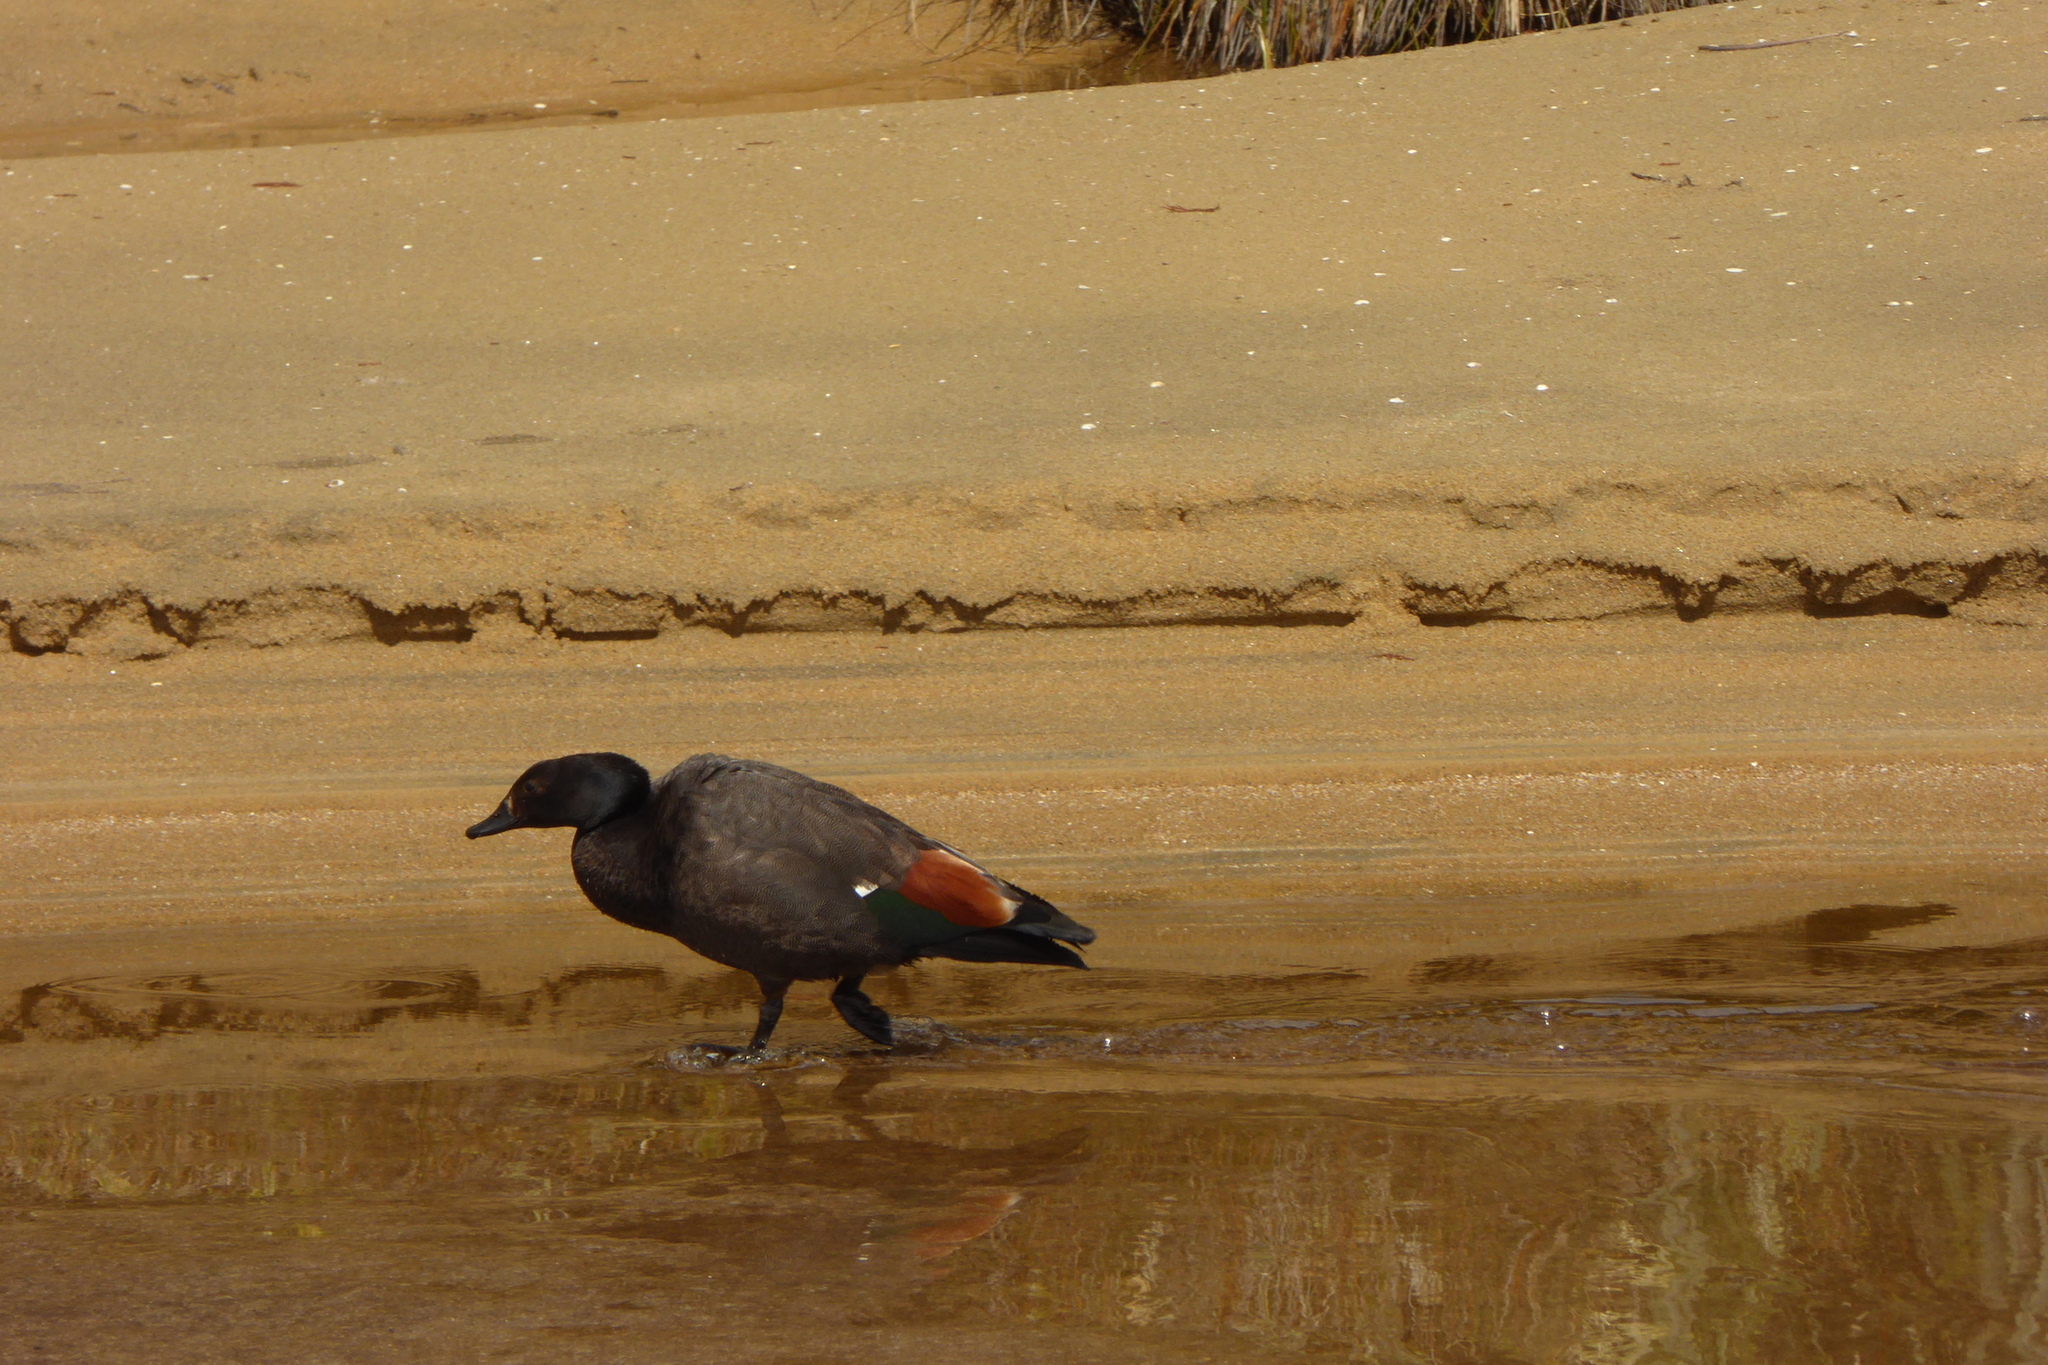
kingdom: Animalia
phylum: Chordata
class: Aves
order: Anseriformes
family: Anatidae
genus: Tadorna
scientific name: Tadorna variegata
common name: Paradise shelduck
